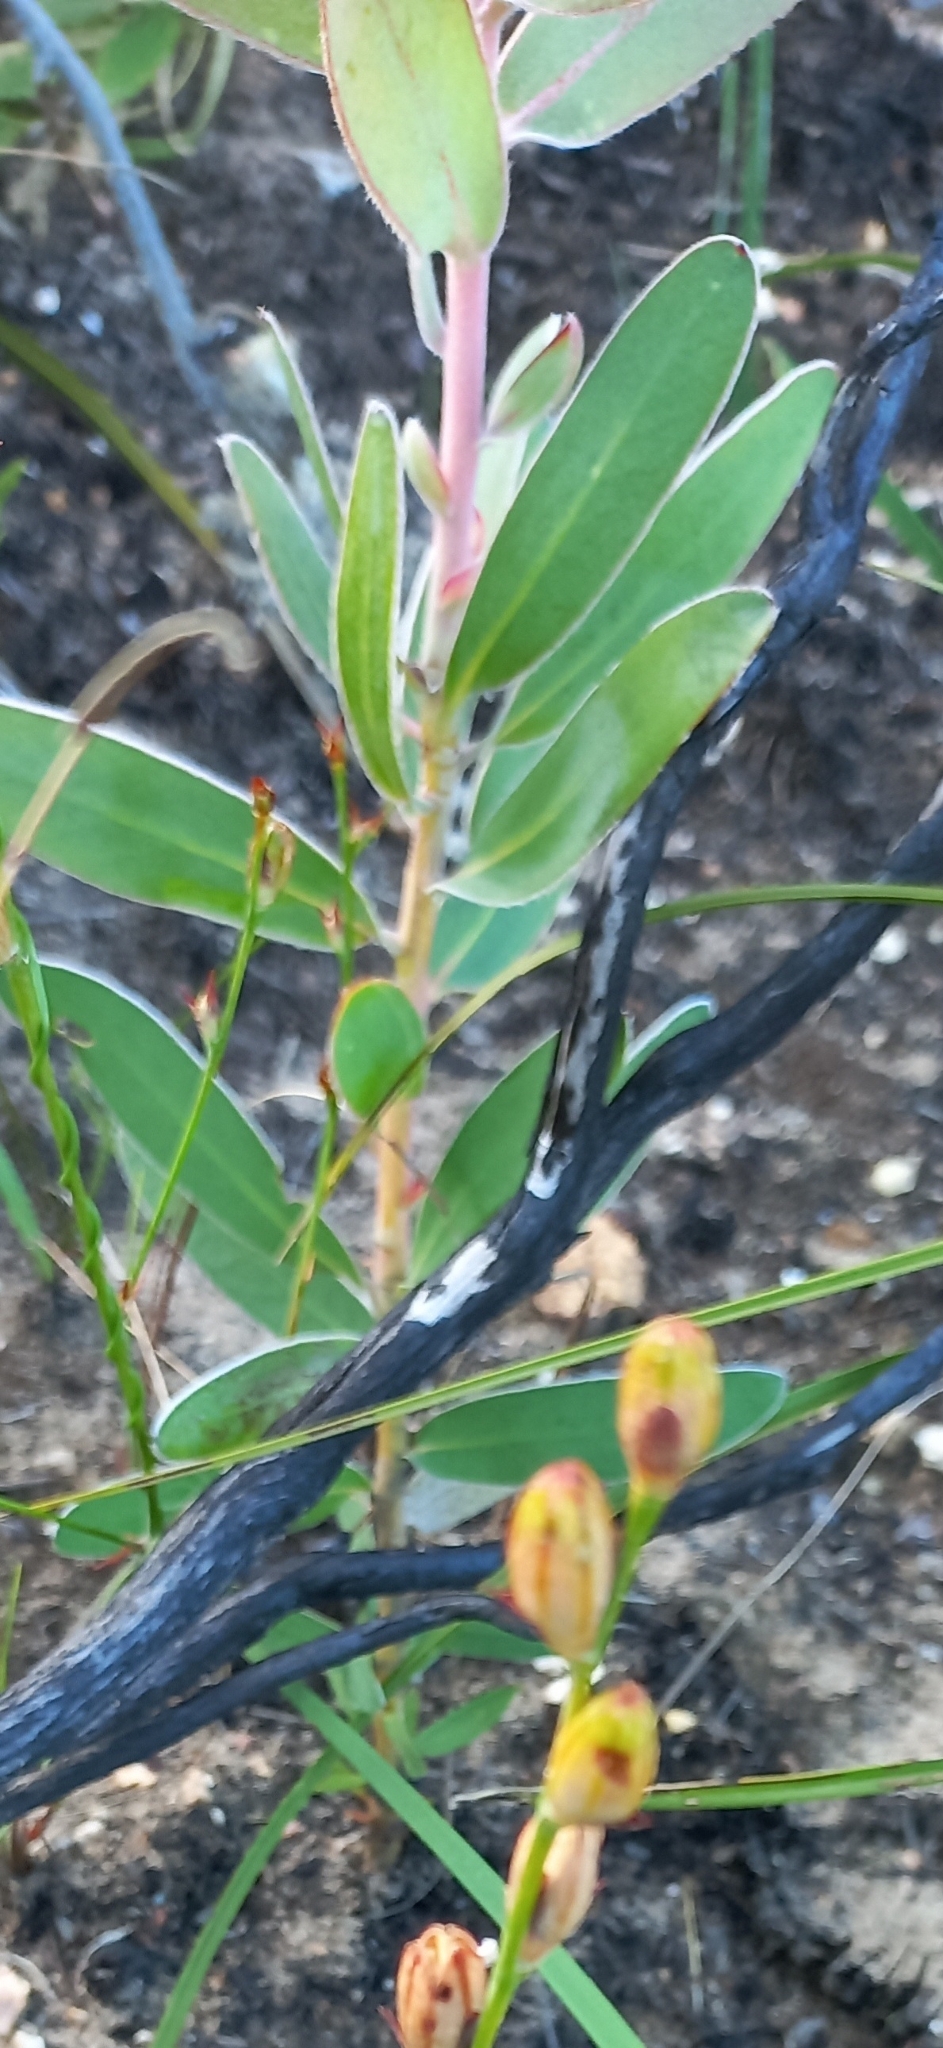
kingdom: Plantae
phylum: Tracheophyta
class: Magnoliopsida
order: Proteales
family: Proteaceae
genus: Protea
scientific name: Protea compacta
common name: Bot river protea
